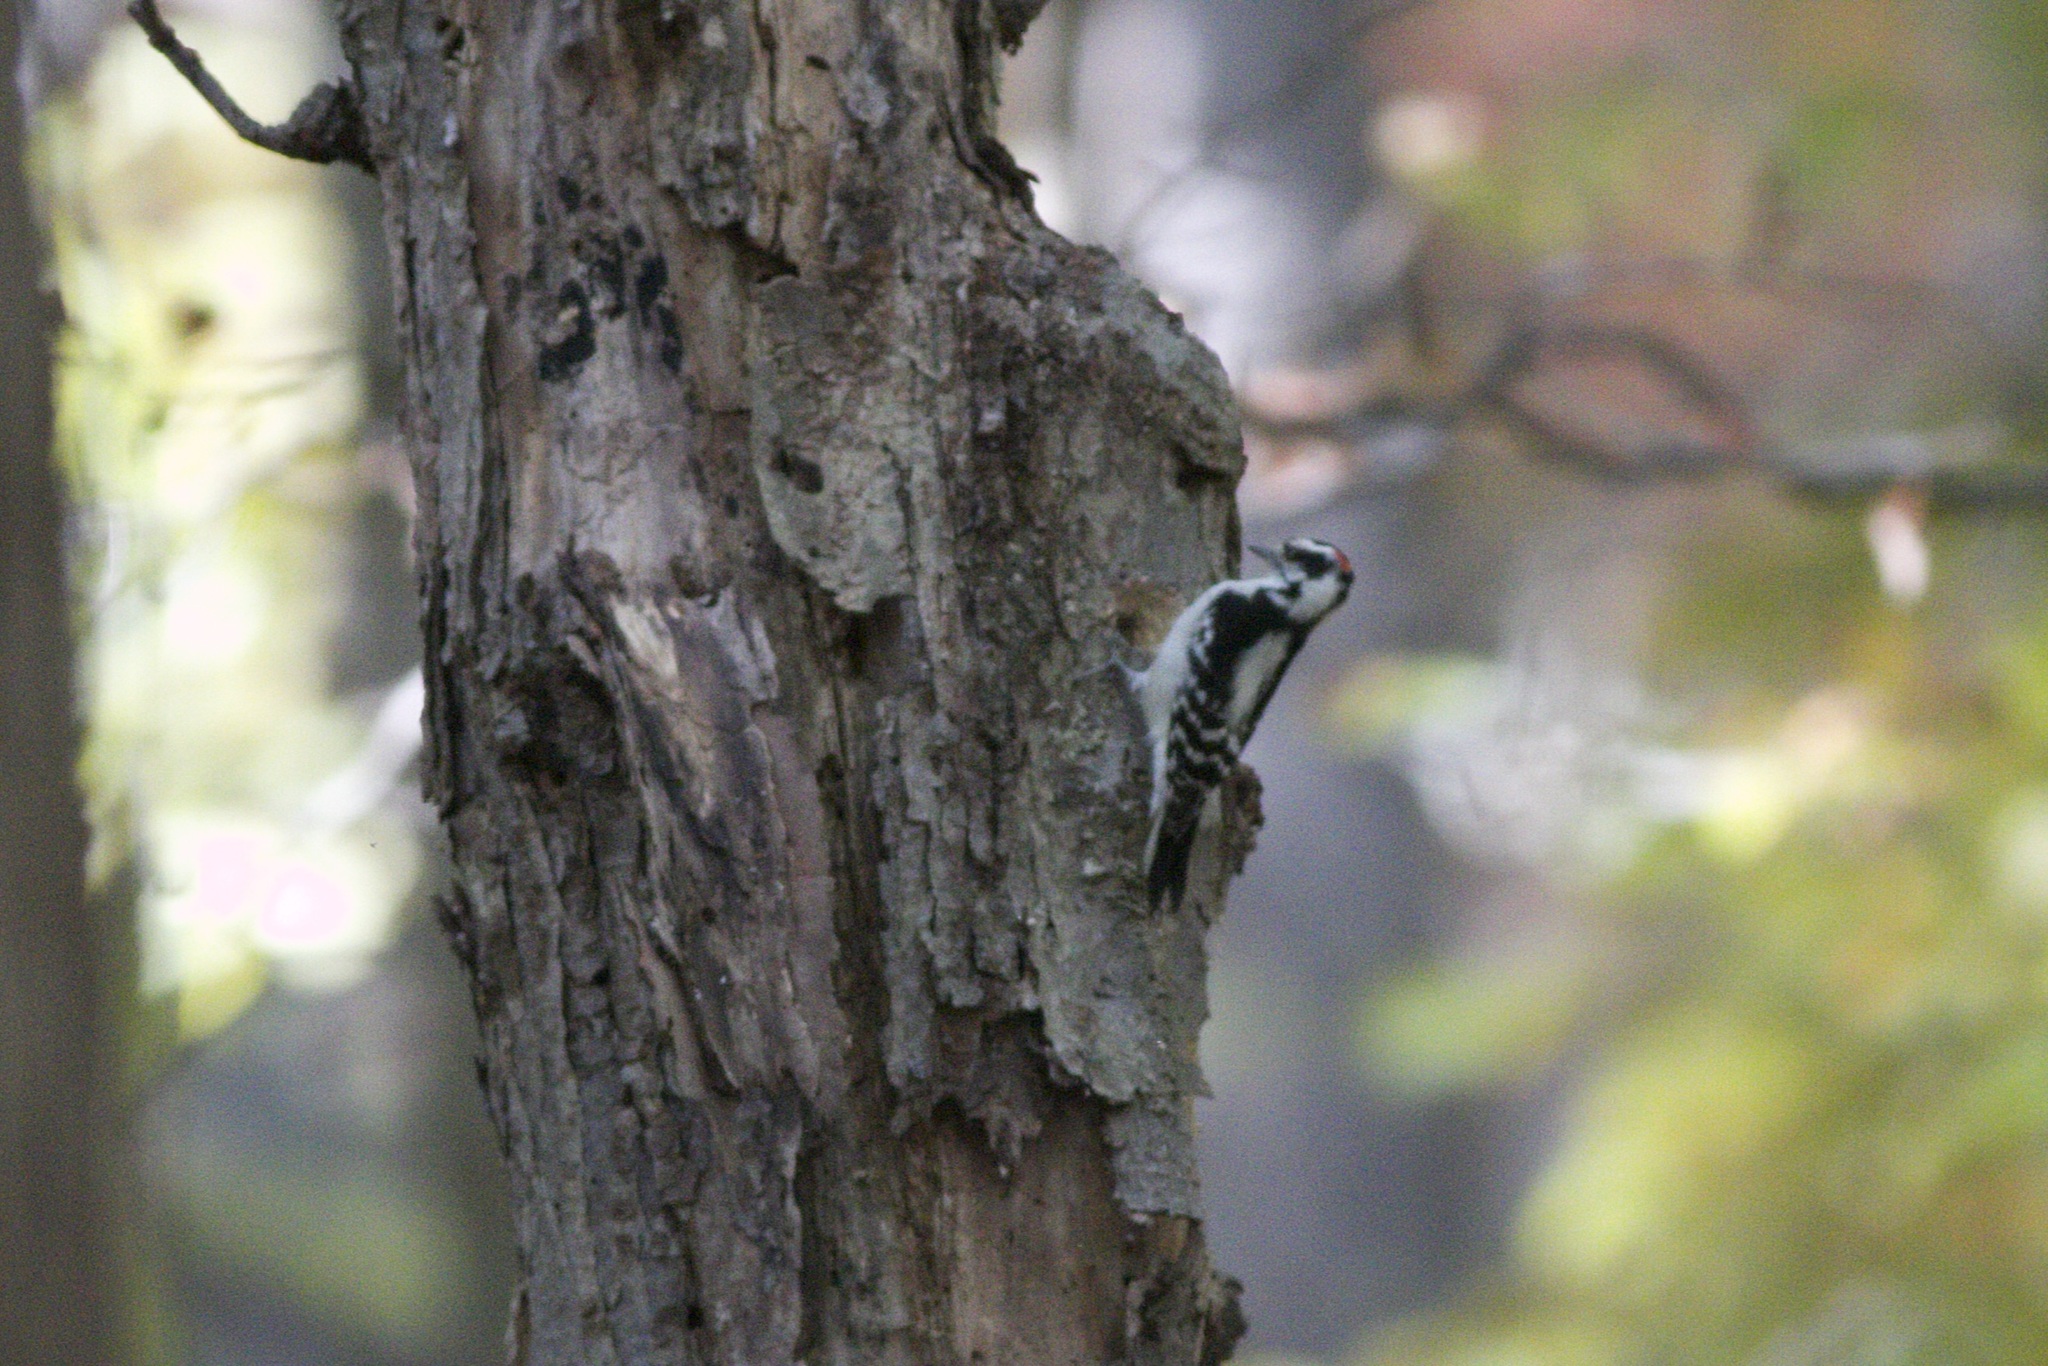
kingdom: Animalia
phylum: Chordata
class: Aves
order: Piciformes
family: Picidae
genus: Leuconotopicus
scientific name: Leuconotopicus villosus
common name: Hairy woodpecker
